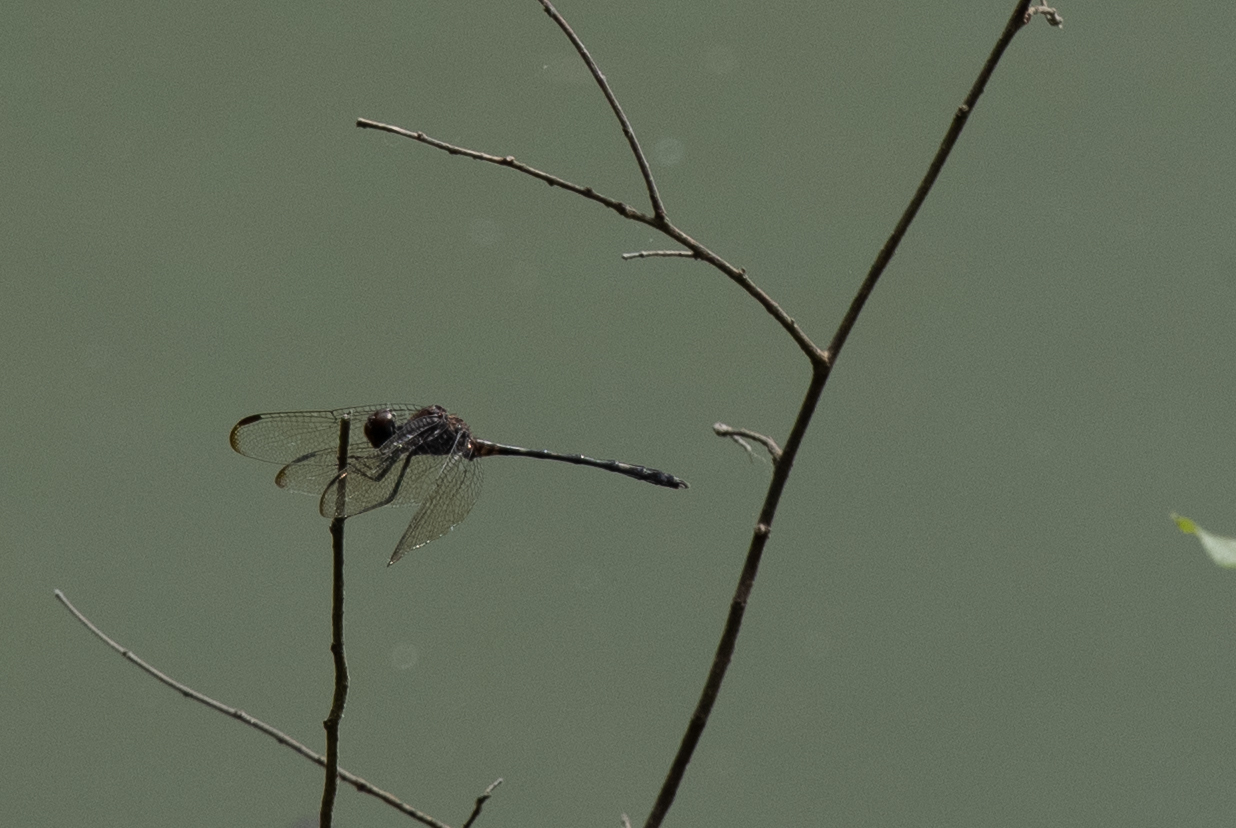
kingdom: Animalia
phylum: Arthropoda
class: Insecta
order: Odonata
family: Libellulidae
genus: Dythemis
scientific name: Dythemis velox
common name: Swift setwing
